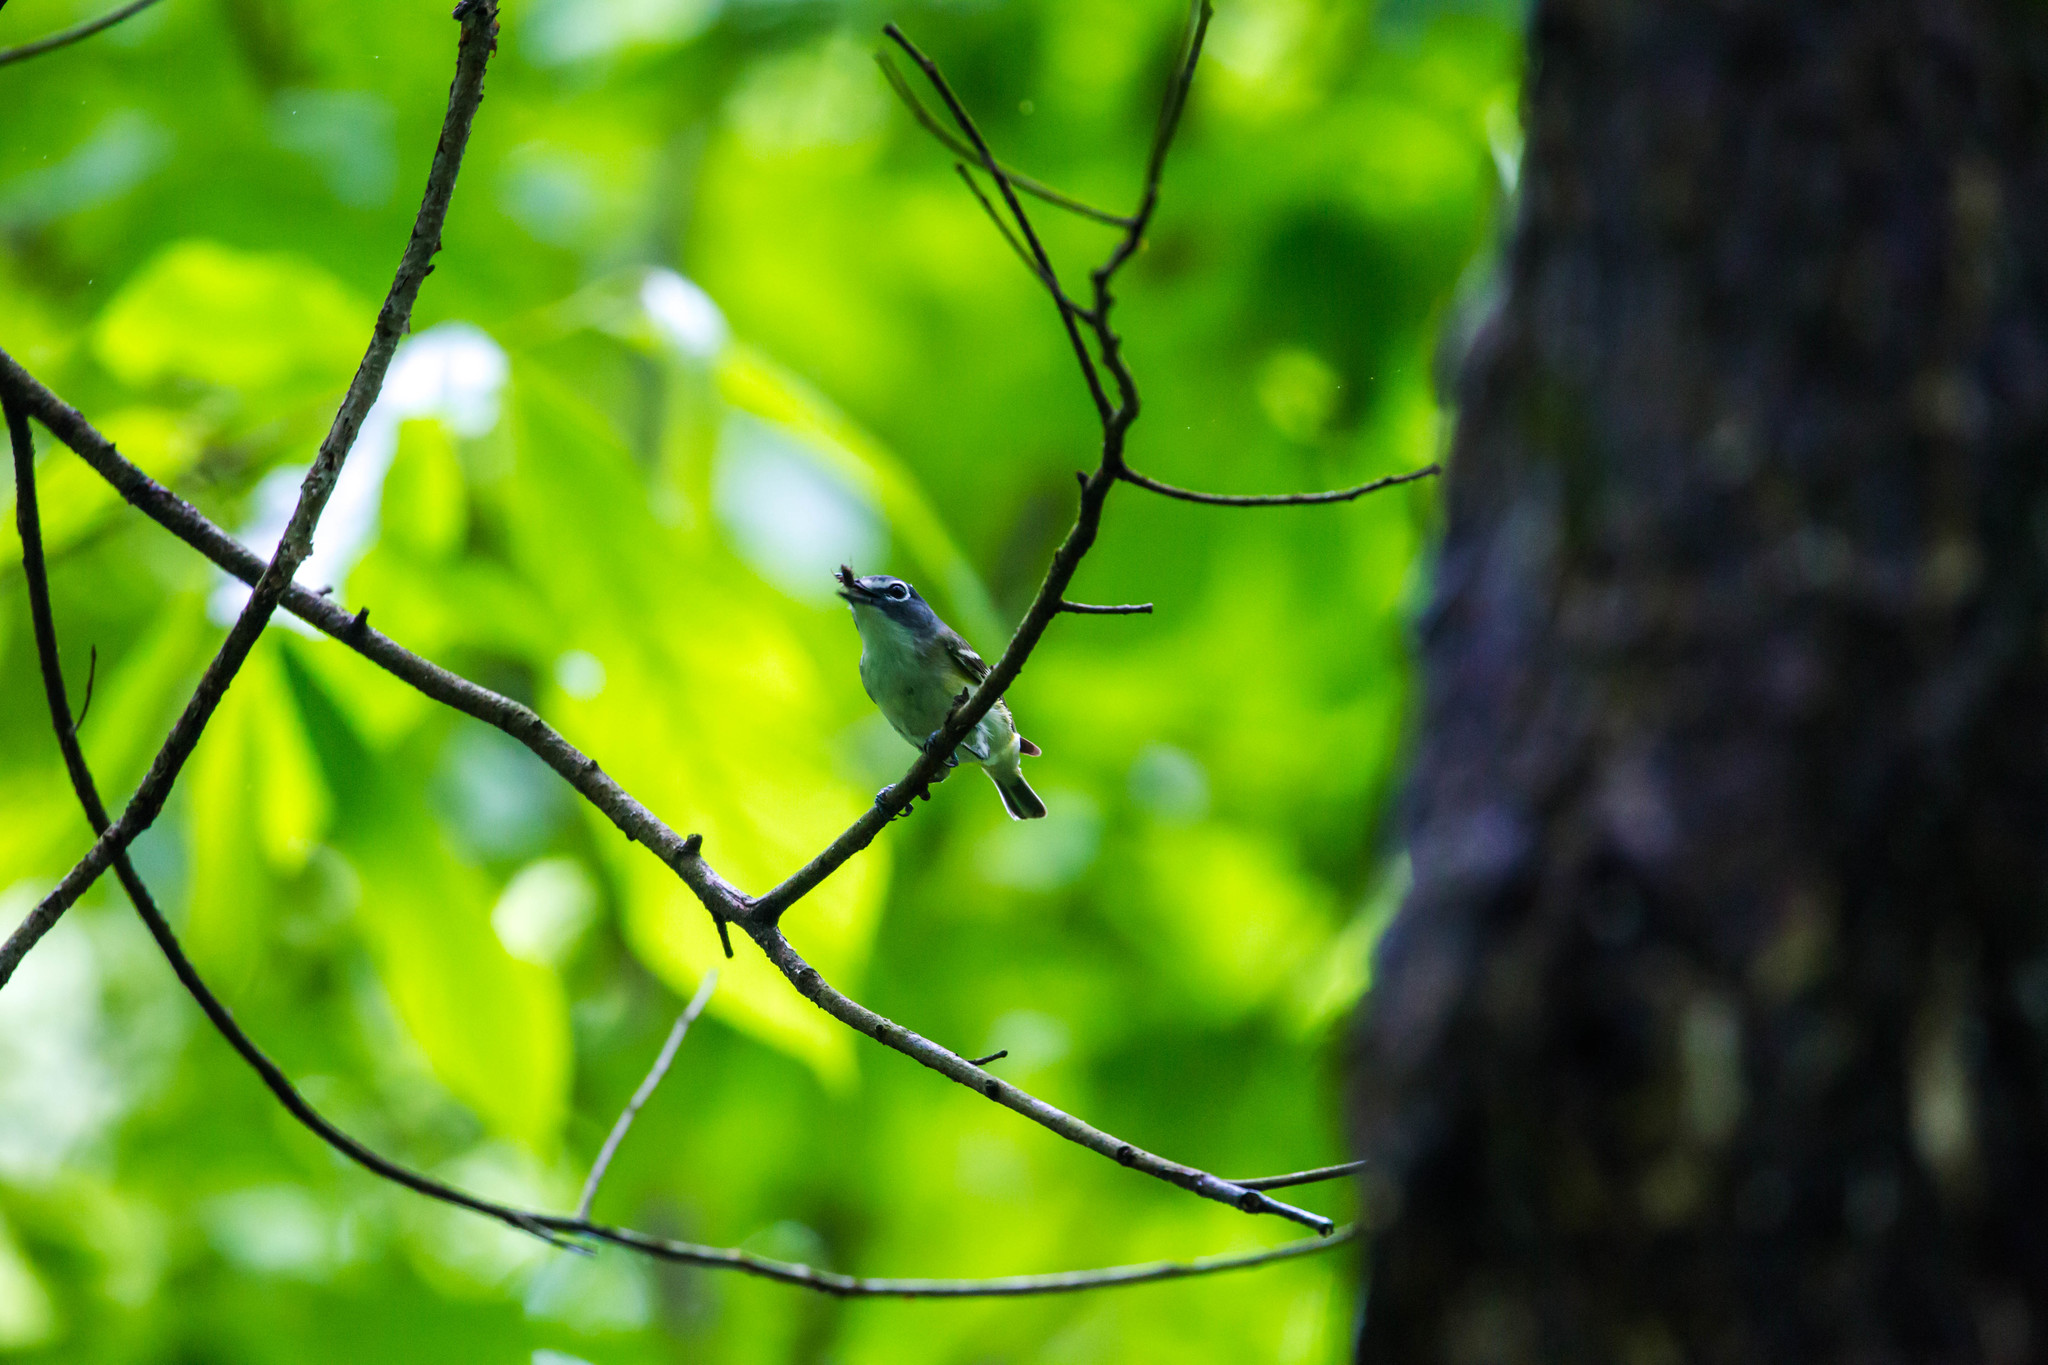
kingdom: Animalia
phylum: Chordata
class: Aves
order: Passeriformes
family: Vireonidae
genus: Vireo
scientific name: Vireo solitarius
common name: Blue-headed vireo
